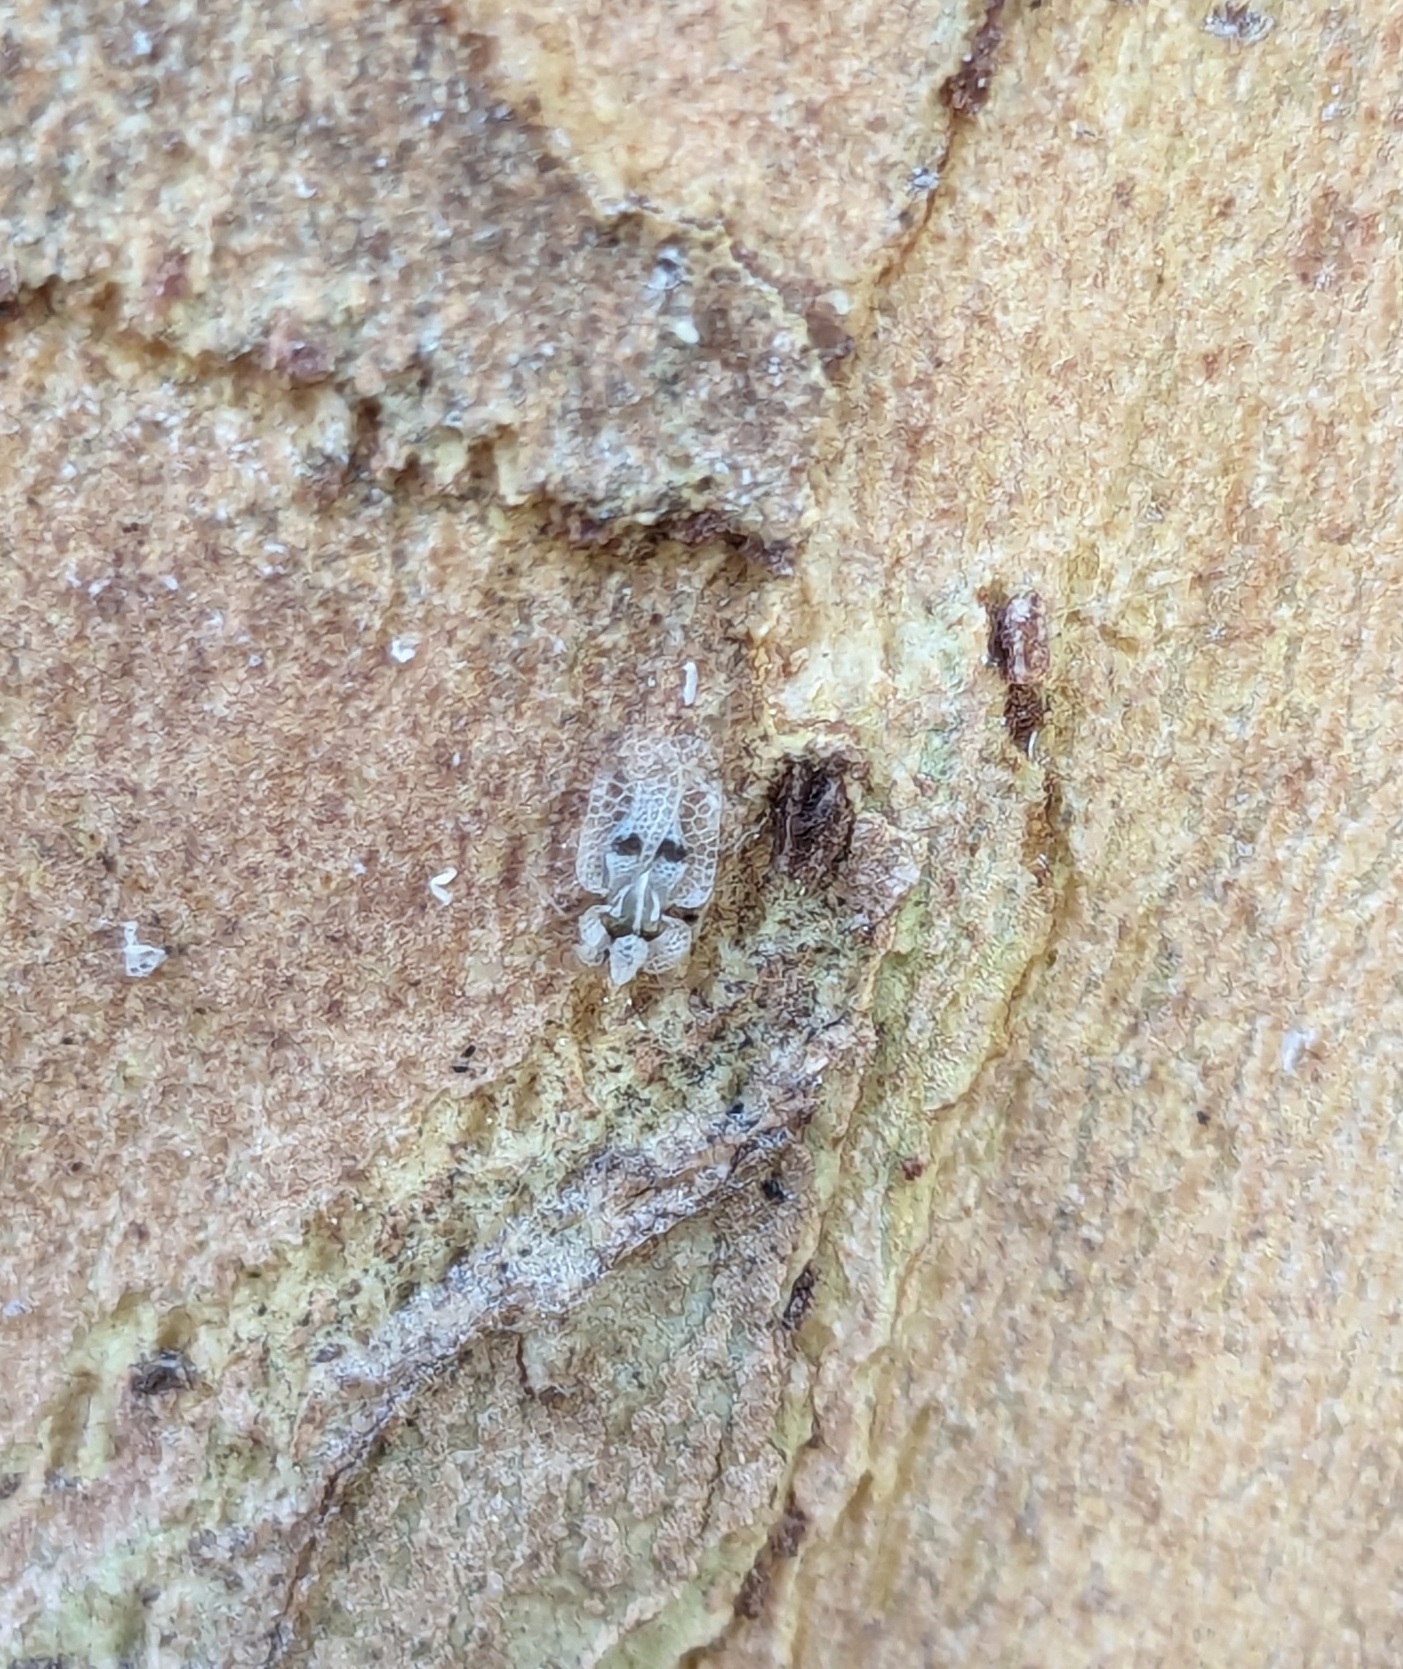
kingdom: Animalia
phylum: Arthropoda
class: Insecta
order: Hemiptera
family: Tingidae
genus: Corythucha
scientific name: Corythucha ciliata
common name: Sycamore lace bug
